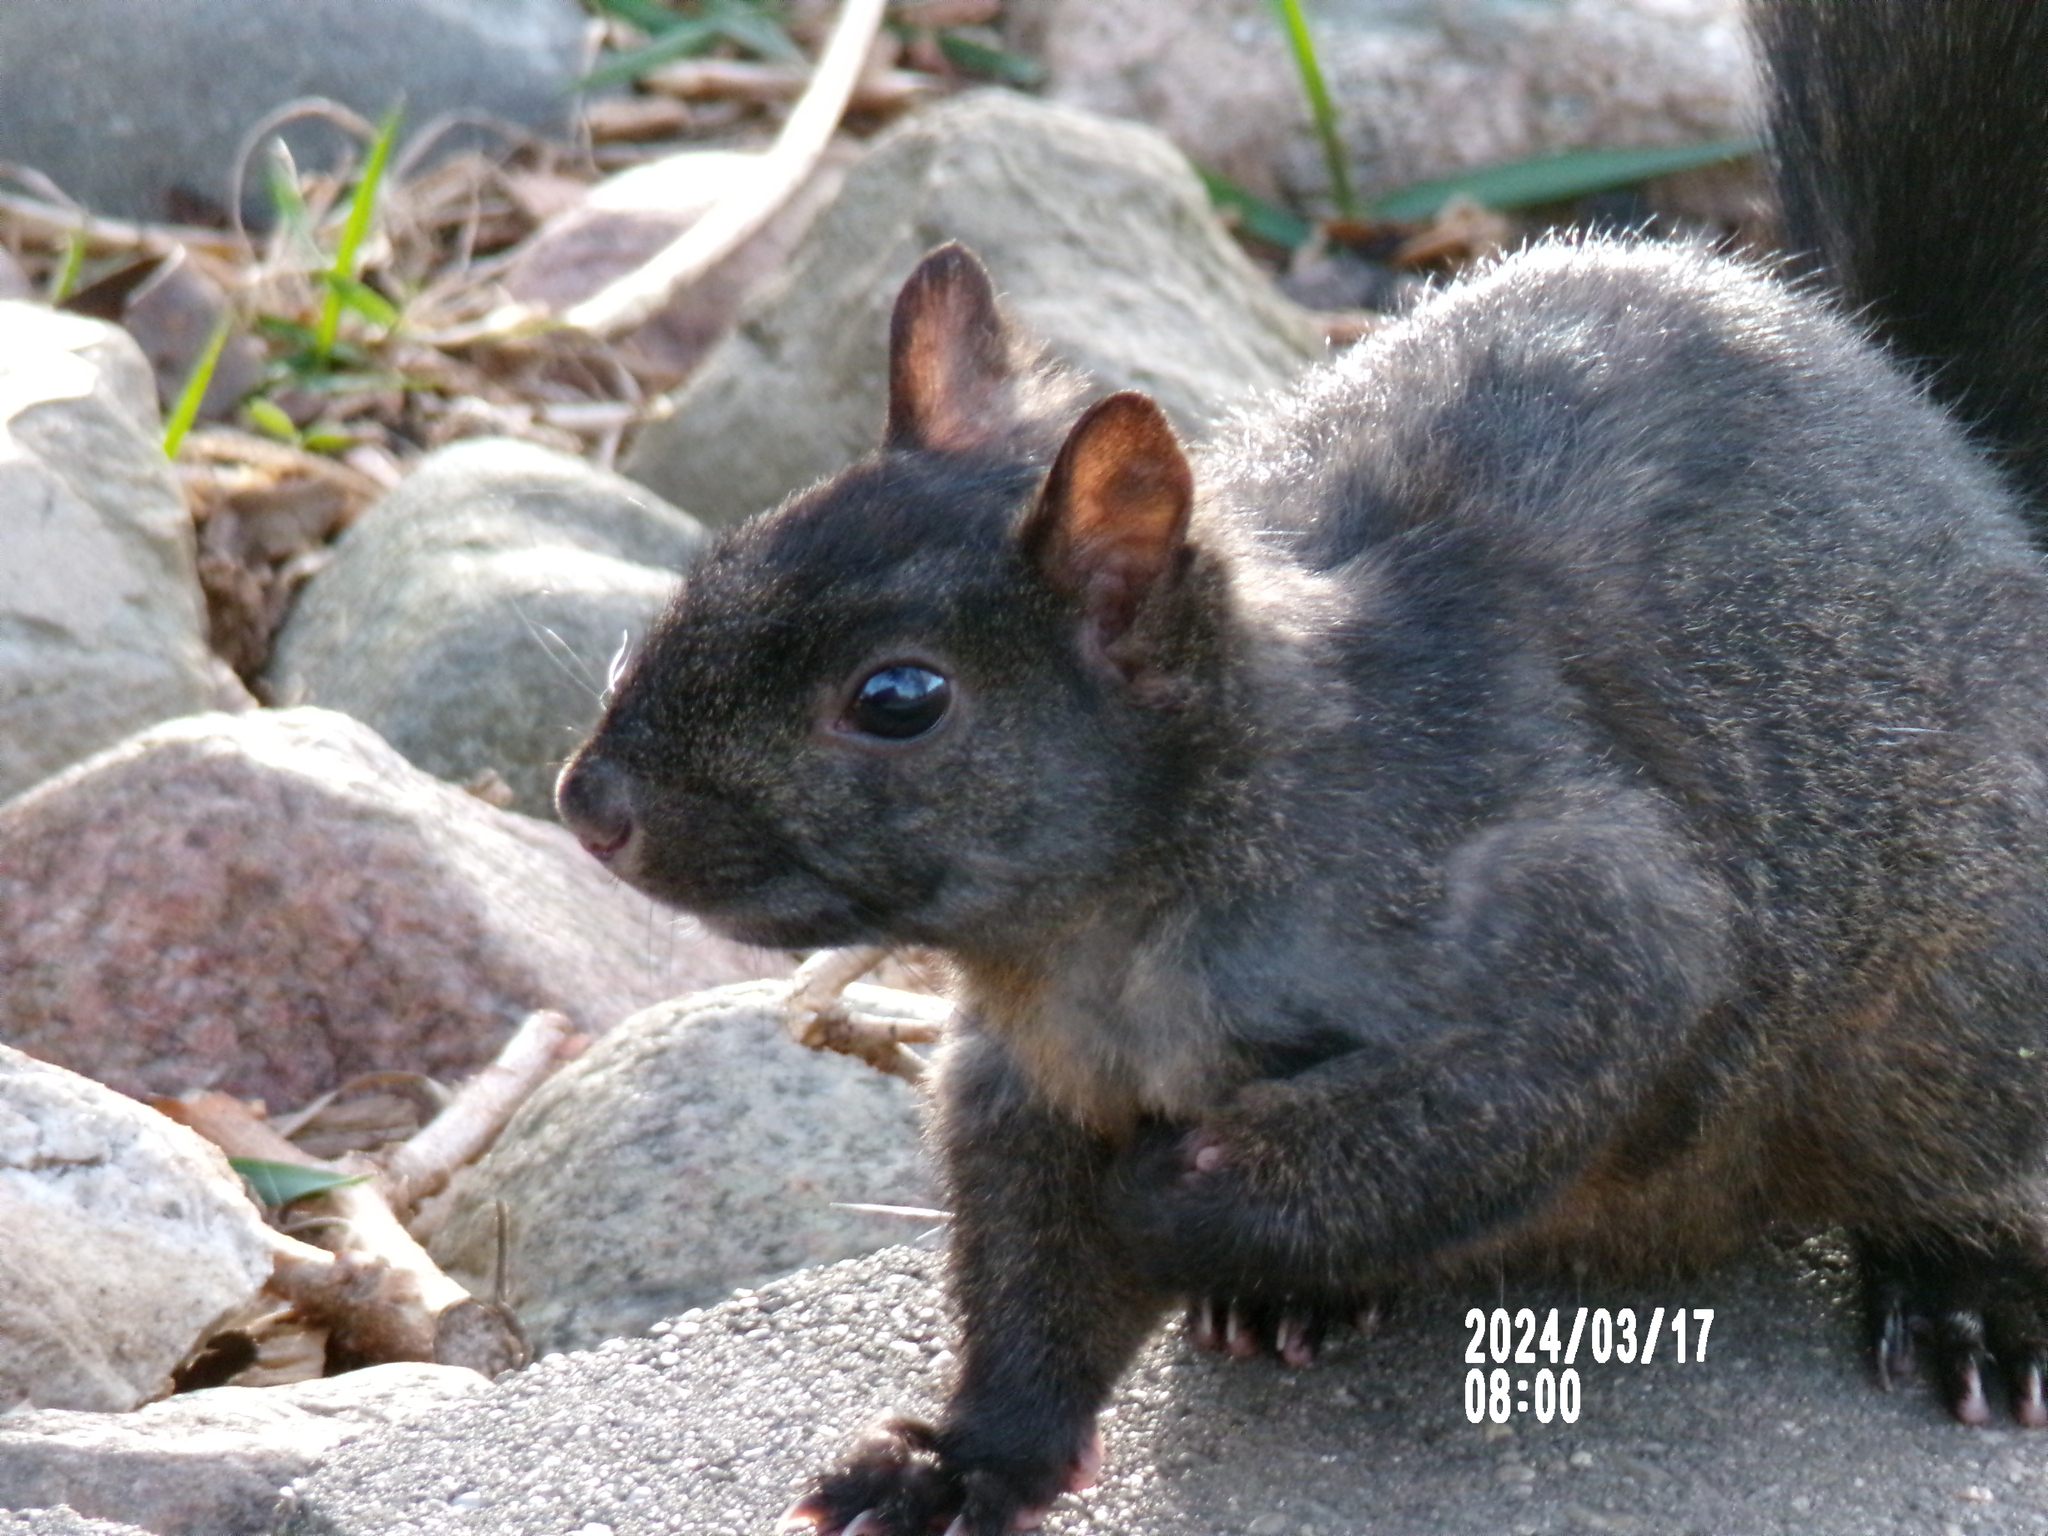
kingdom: Animalia
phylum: Chordata
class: Mammalia
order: Rodentia
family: Sciuridae
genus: Sciurus
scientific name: Sciurus carolinensis
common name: Eastern gray squirrel
